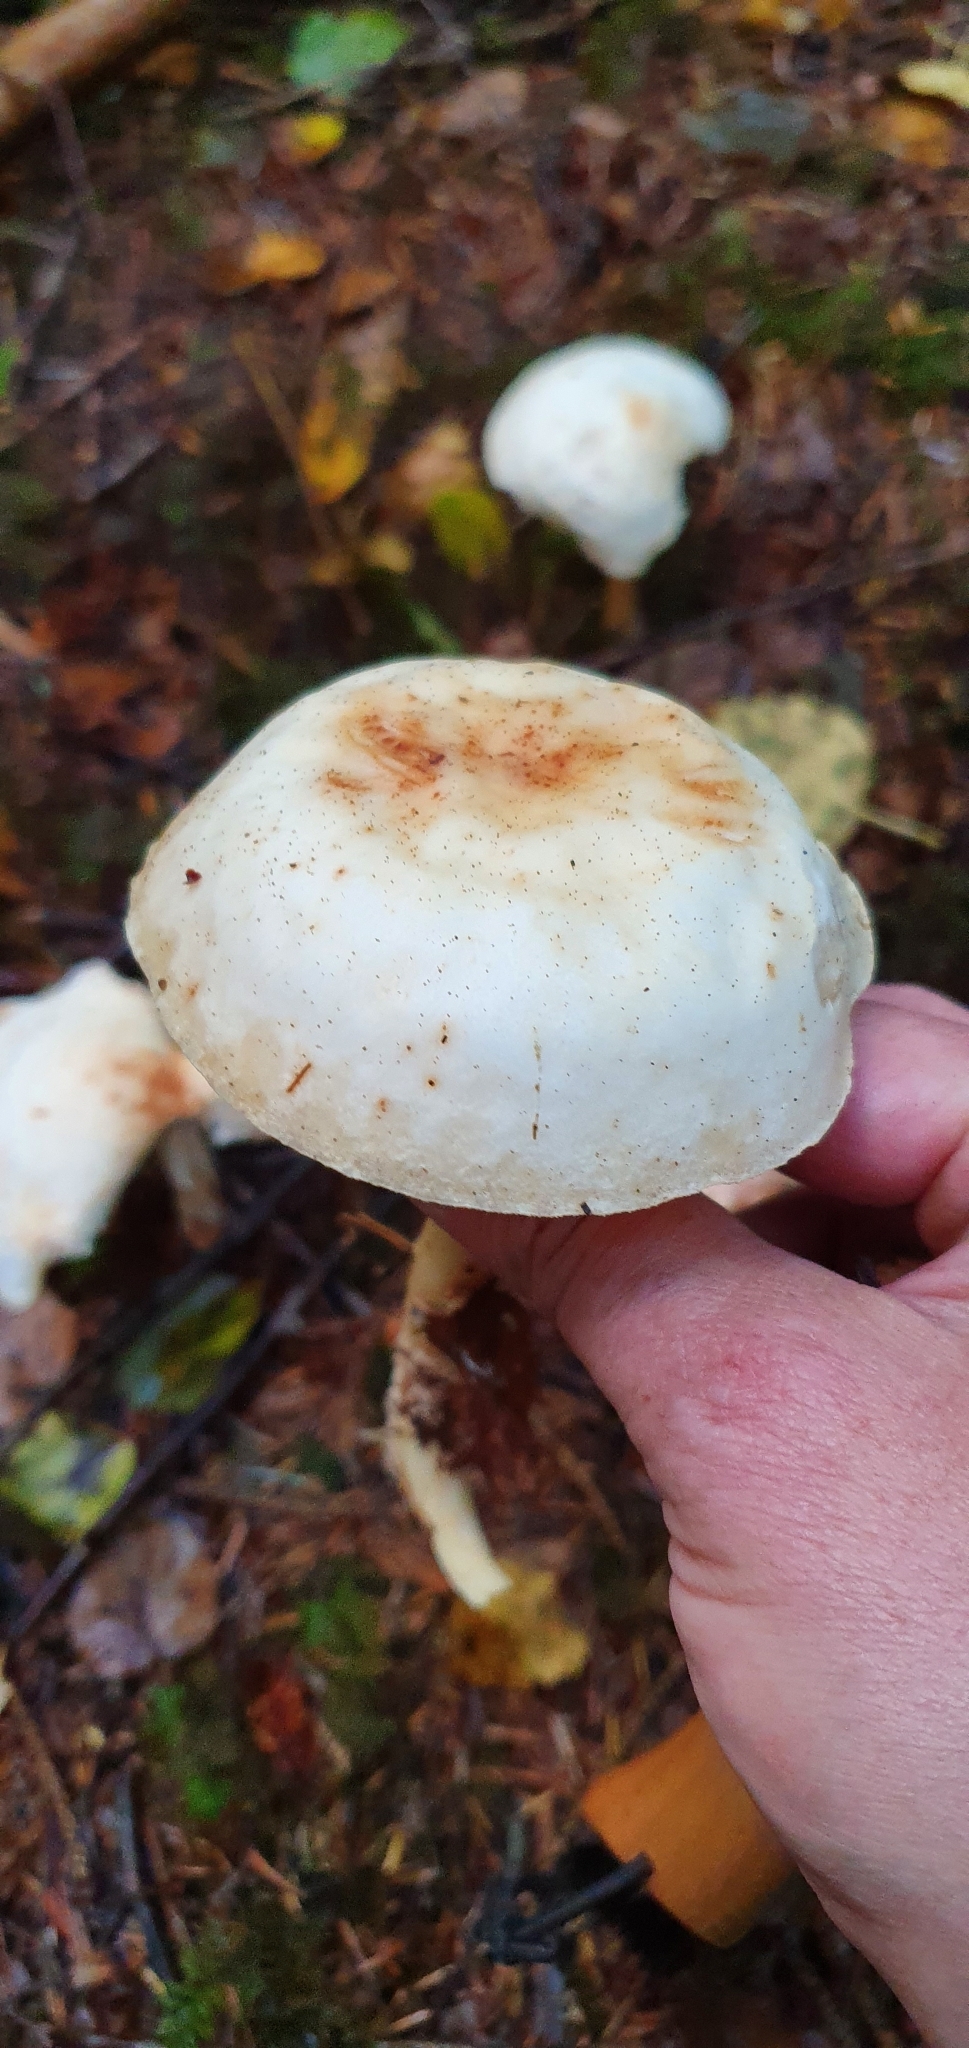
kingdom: Fungi
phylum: Basidiomycota
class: Agaricomycetes
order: Agaricales
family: Omphalotaceae
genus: Rhodocollybia
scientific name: Rhodocollybia maculata
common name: Spotted tough-shank
